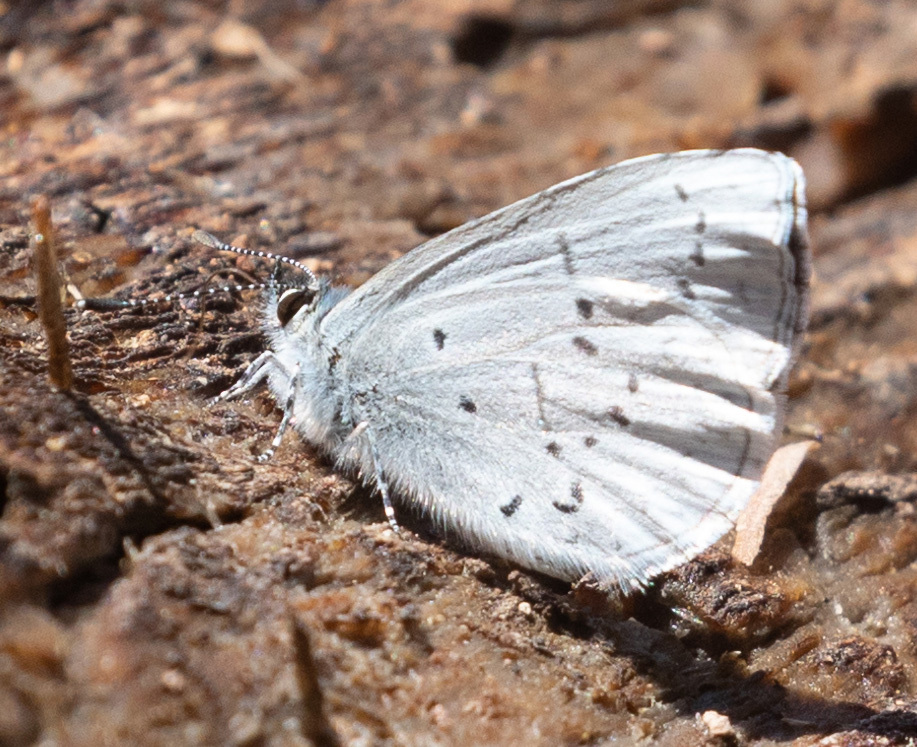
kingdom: Animalia
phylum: Arthropoda
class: Insecta
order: Lepidoptera
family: Lycaenidae
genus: Celastrina
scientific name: Celastrina ladon
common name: Spring azure
